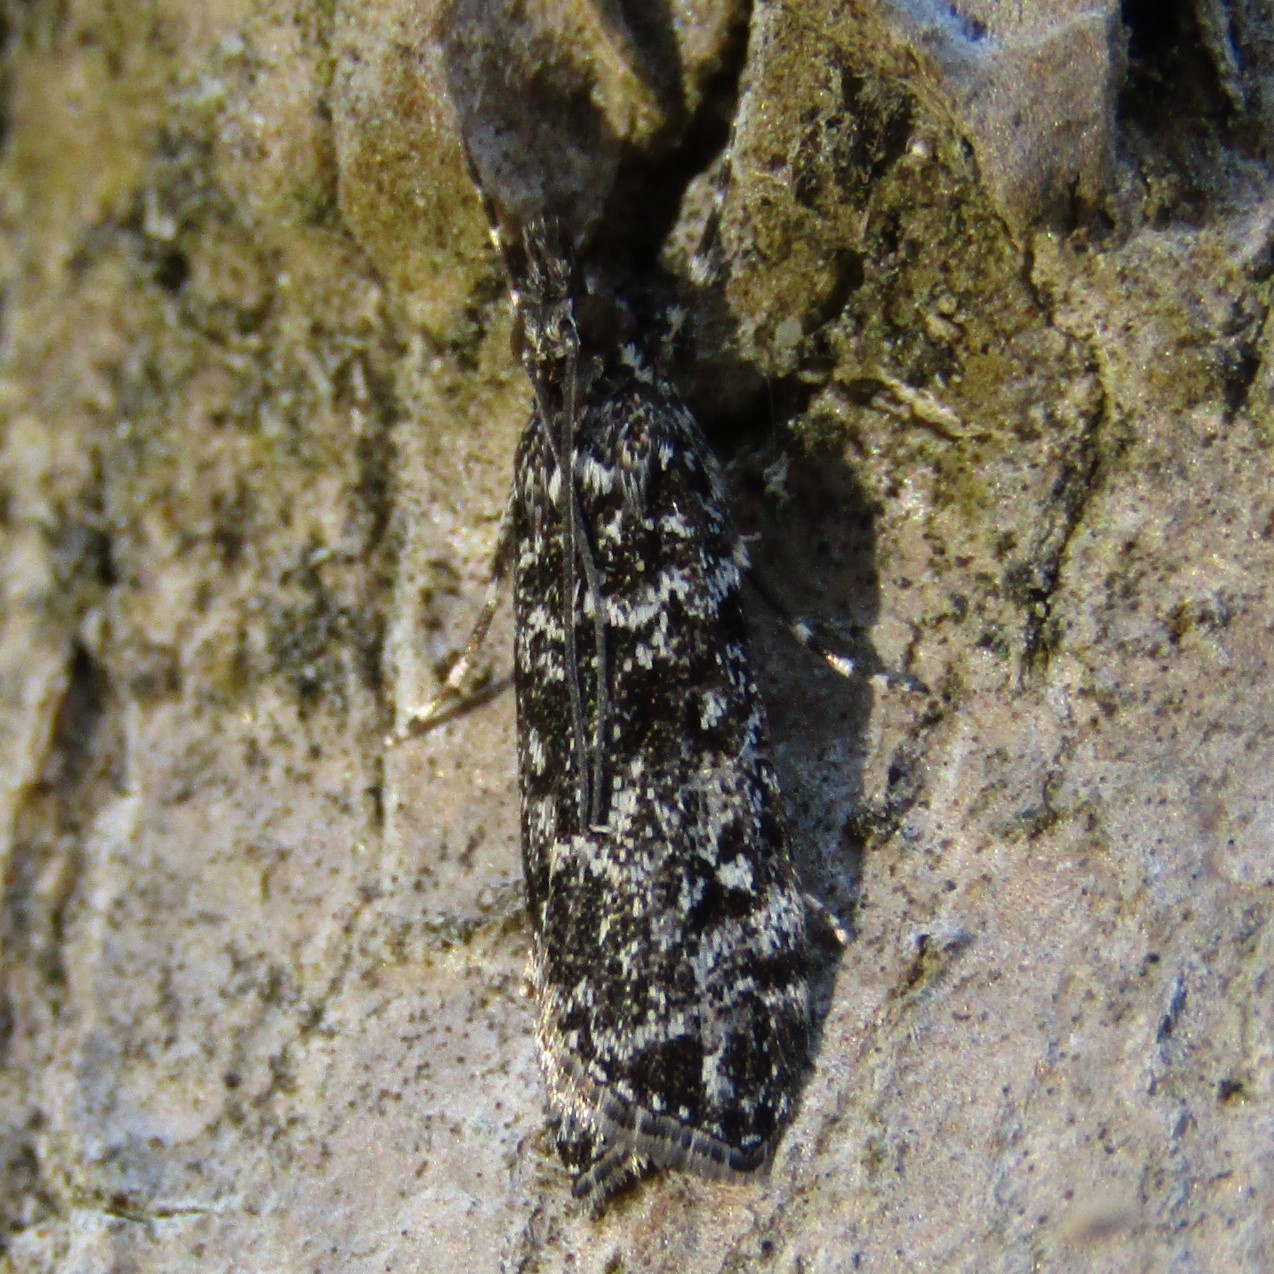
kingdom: Animalia
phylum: Arthropoda
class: Insecta
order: Lepidoptera
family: Crambidae
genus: Eudonia
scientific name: Eudonia philerga
